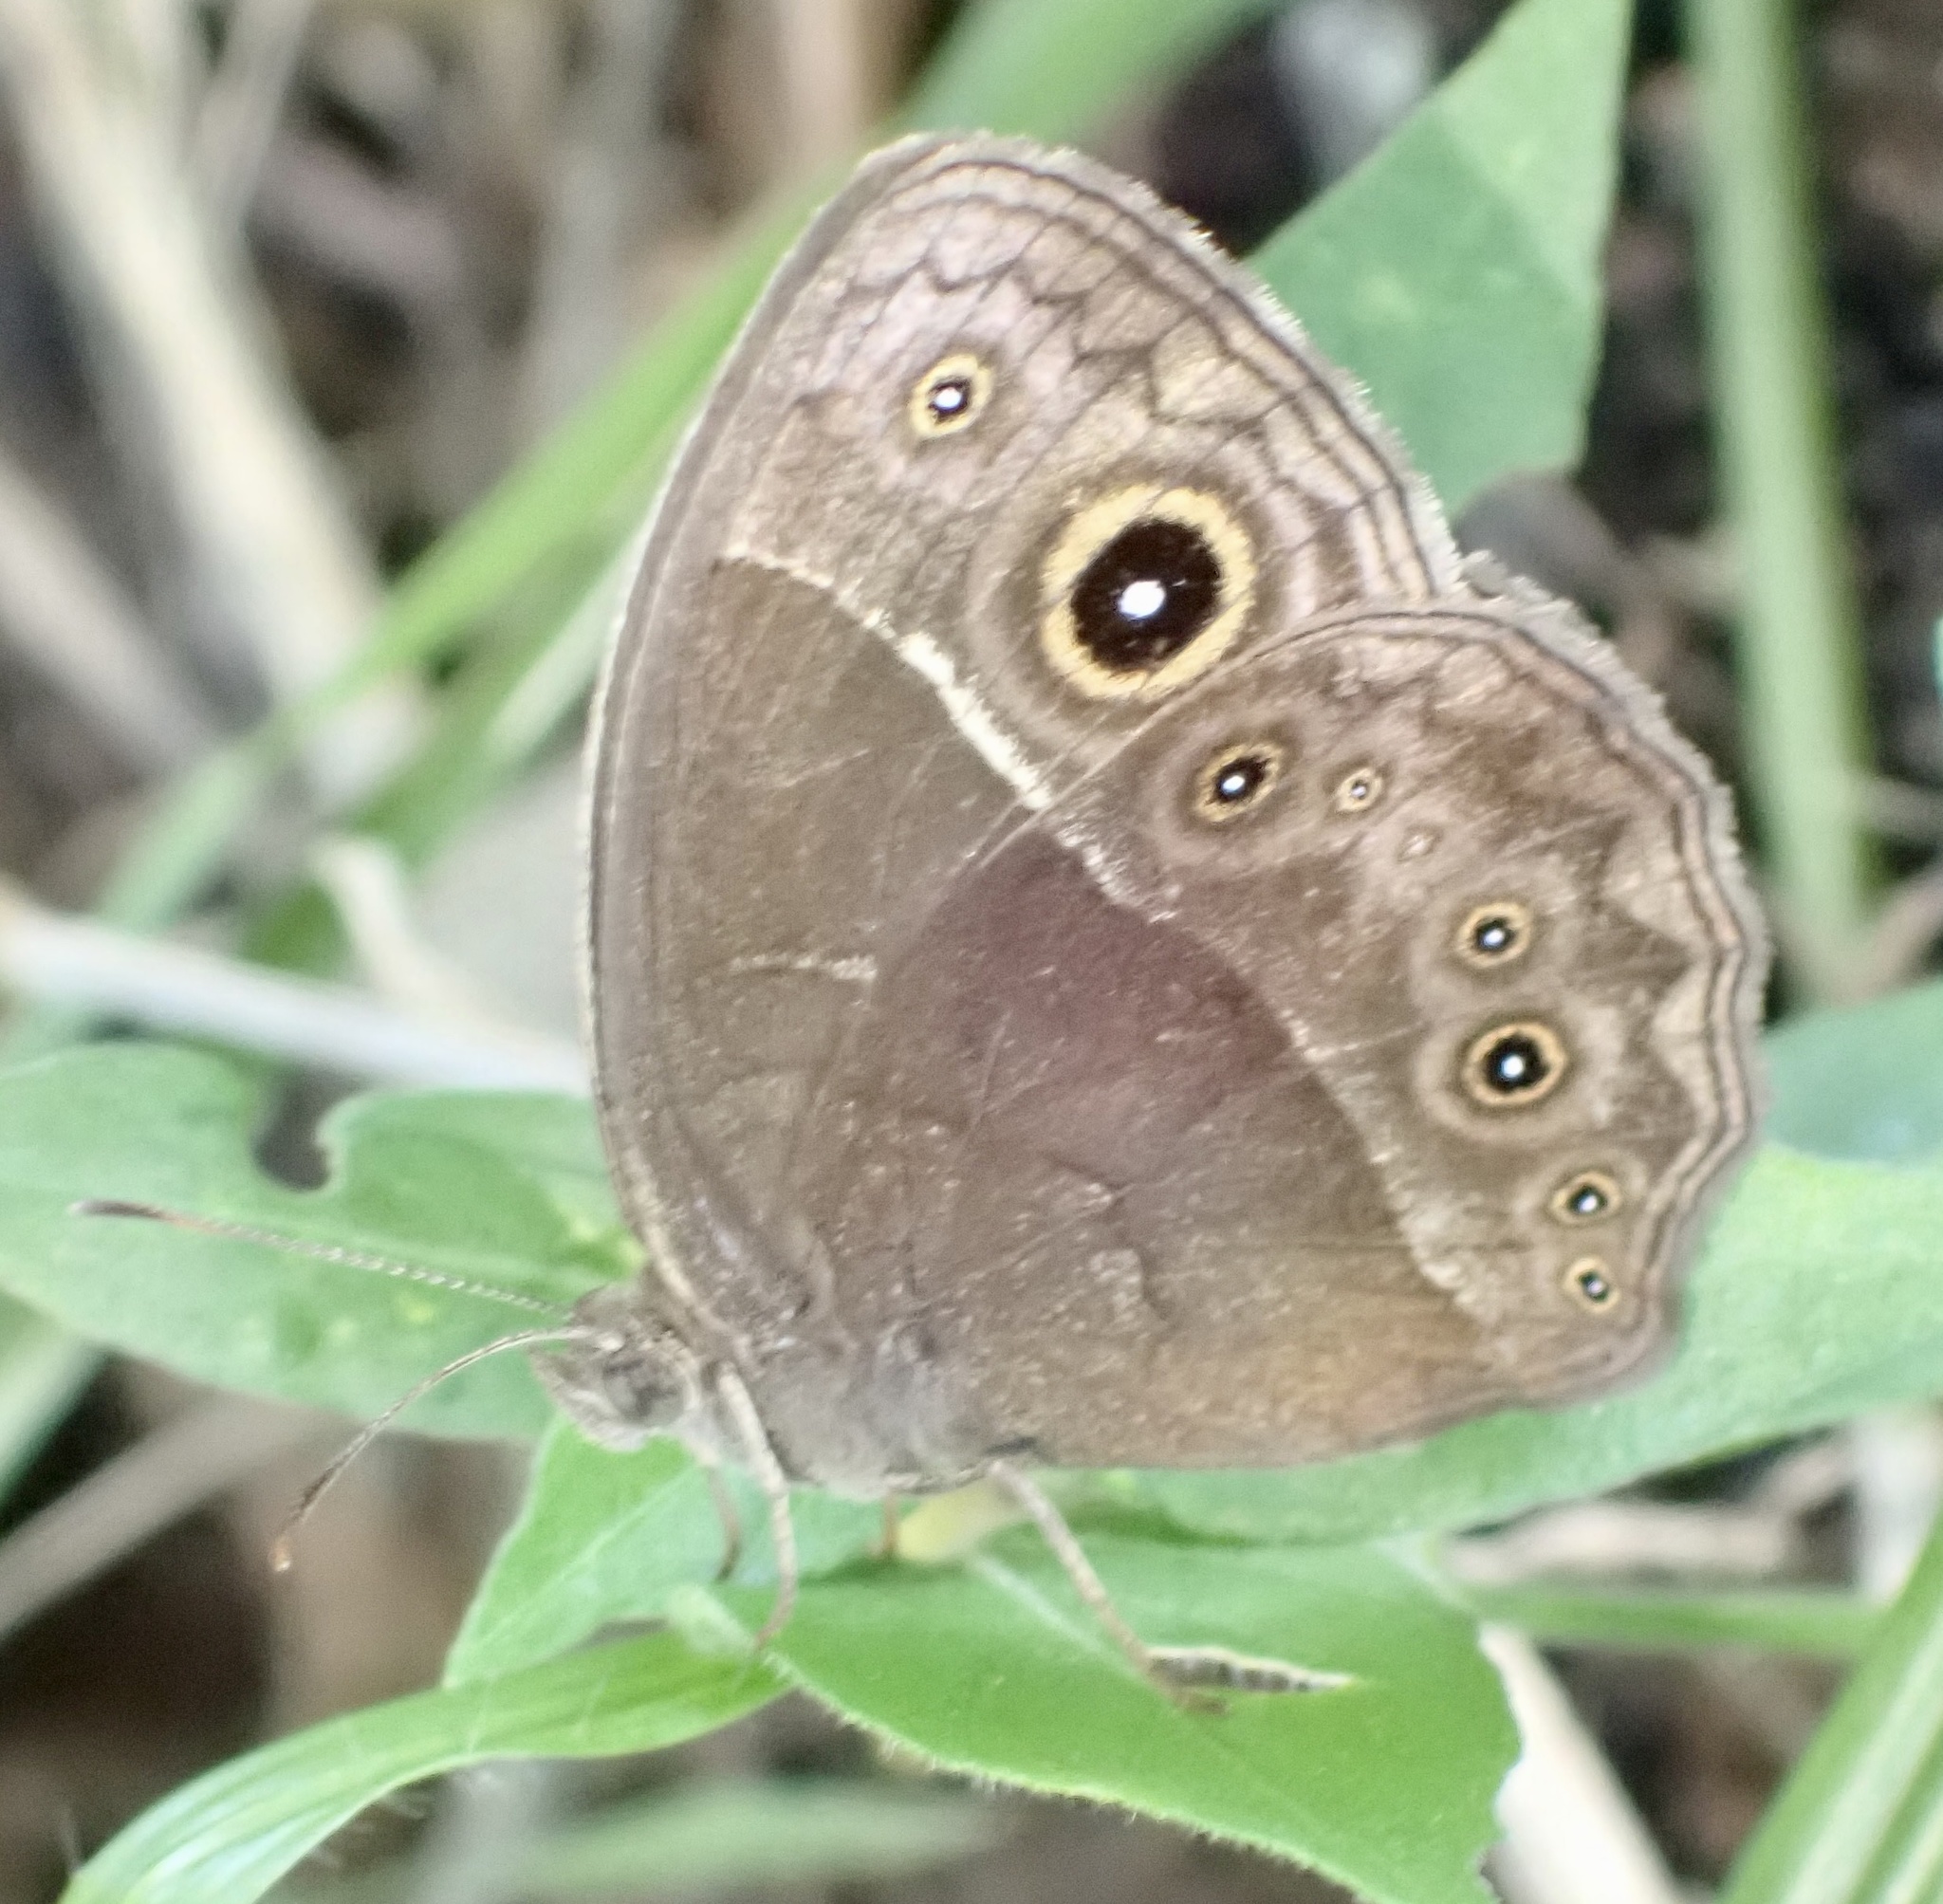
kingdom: Animalia
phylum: Arthropoda
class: Insecta
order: Lepidoptera
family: Nymphalidae
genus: Mycalesis
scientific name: Mycalesis rhacotis
